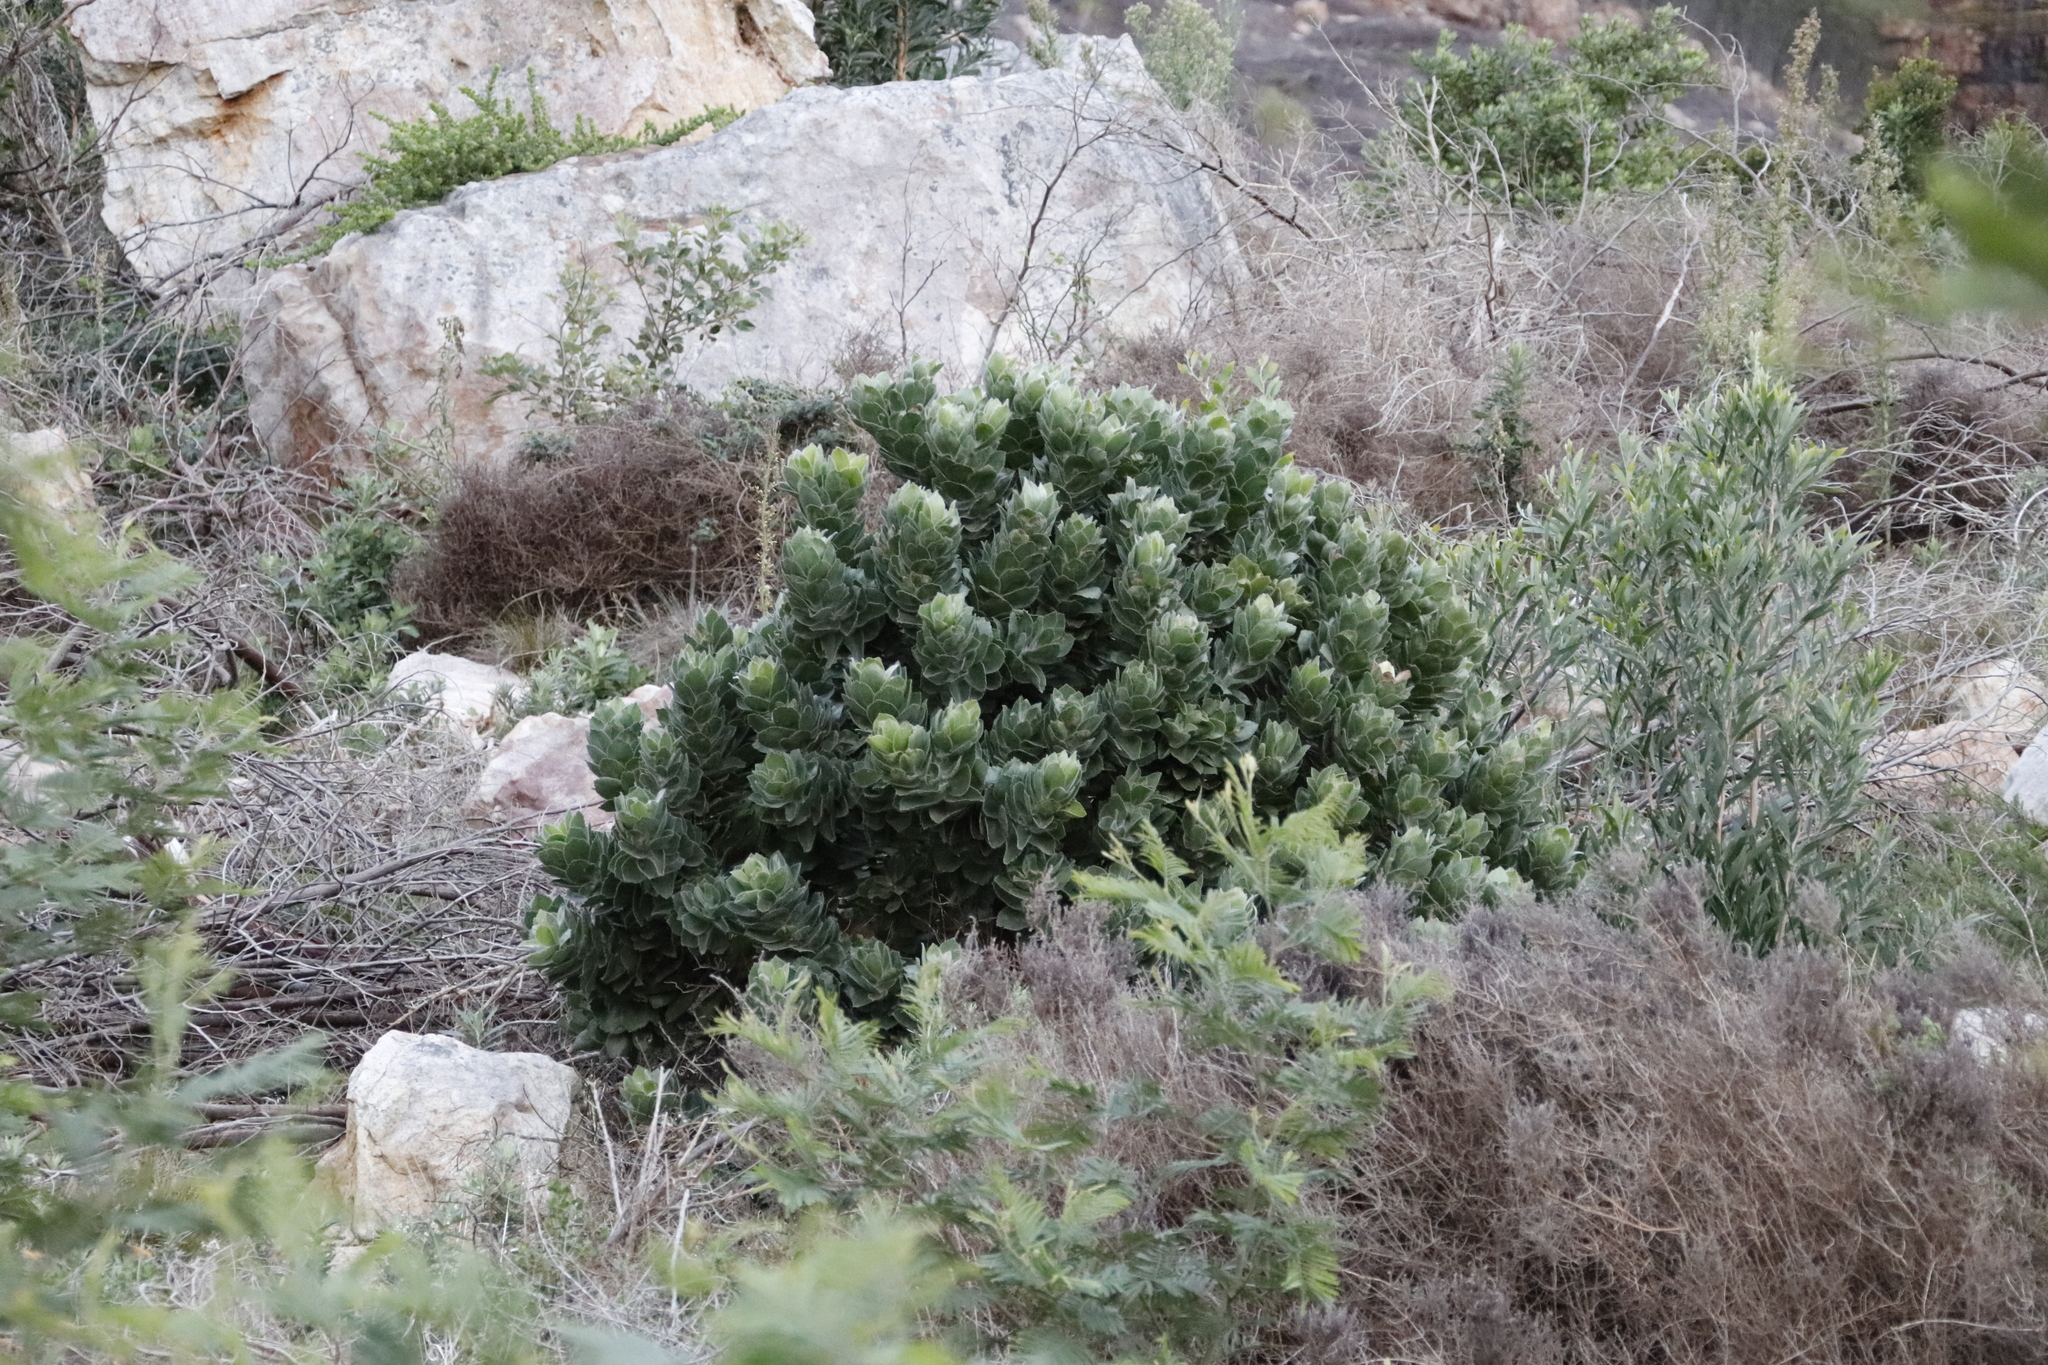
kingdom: Plantae
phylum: Tracheophyta
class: Magnoliopsida
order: Proteales
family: Proteaceae
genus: Leucospermum
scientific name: Leucospermum conocarpodendron
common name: Tree pincushion
